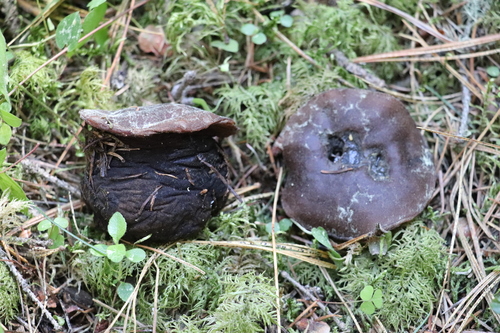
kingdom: Fungi
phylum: Ascomycota
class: Pezizomycetes
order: Pezizales
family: Sarcosomataceae
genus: Sarcosoma
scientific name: Sarcosoma globosum
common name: Charred-pancake cup
